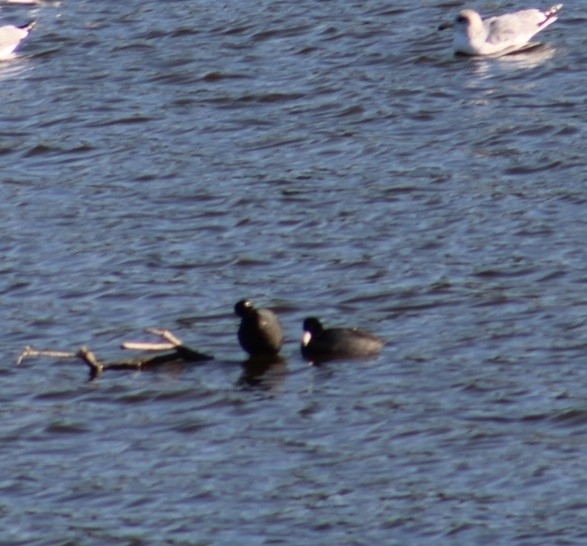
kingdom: Animalia
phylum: Chordata
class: Aves
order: Gruiformes
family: Rallidae
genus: Fulica
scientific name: Fulica americana
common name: American coot
